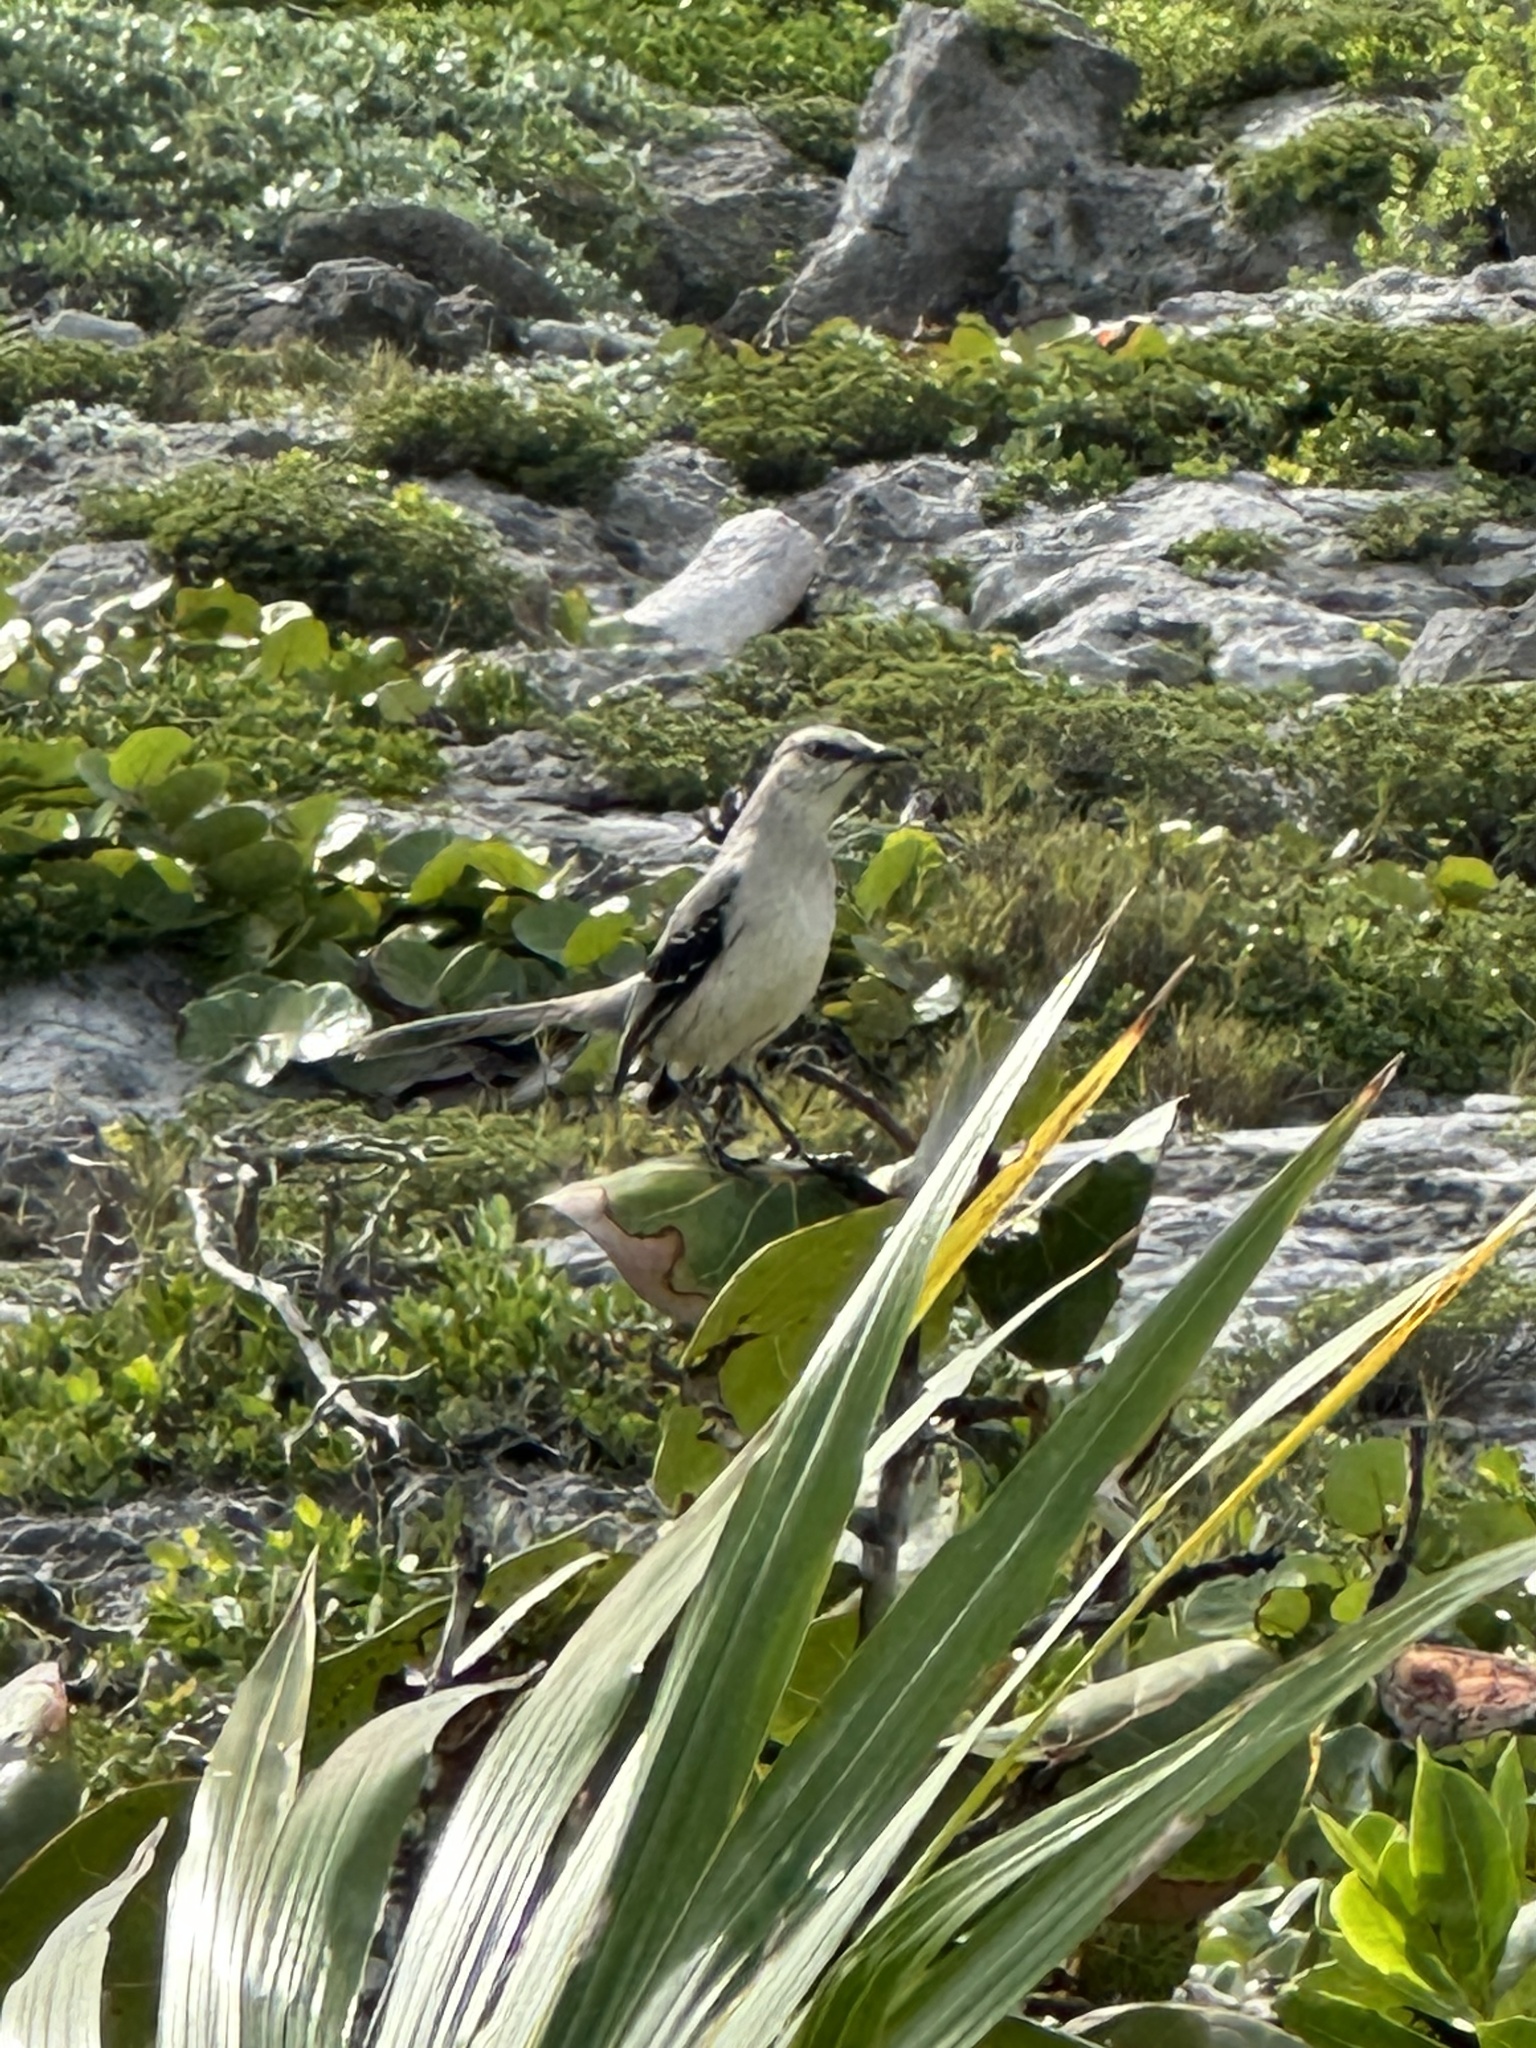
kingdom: Animalia
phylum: Chordata
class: Aves
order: Passeriformes
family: Mimidae
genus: Mimus
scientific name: Mimus gilvus
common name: Tropical mockingbird
